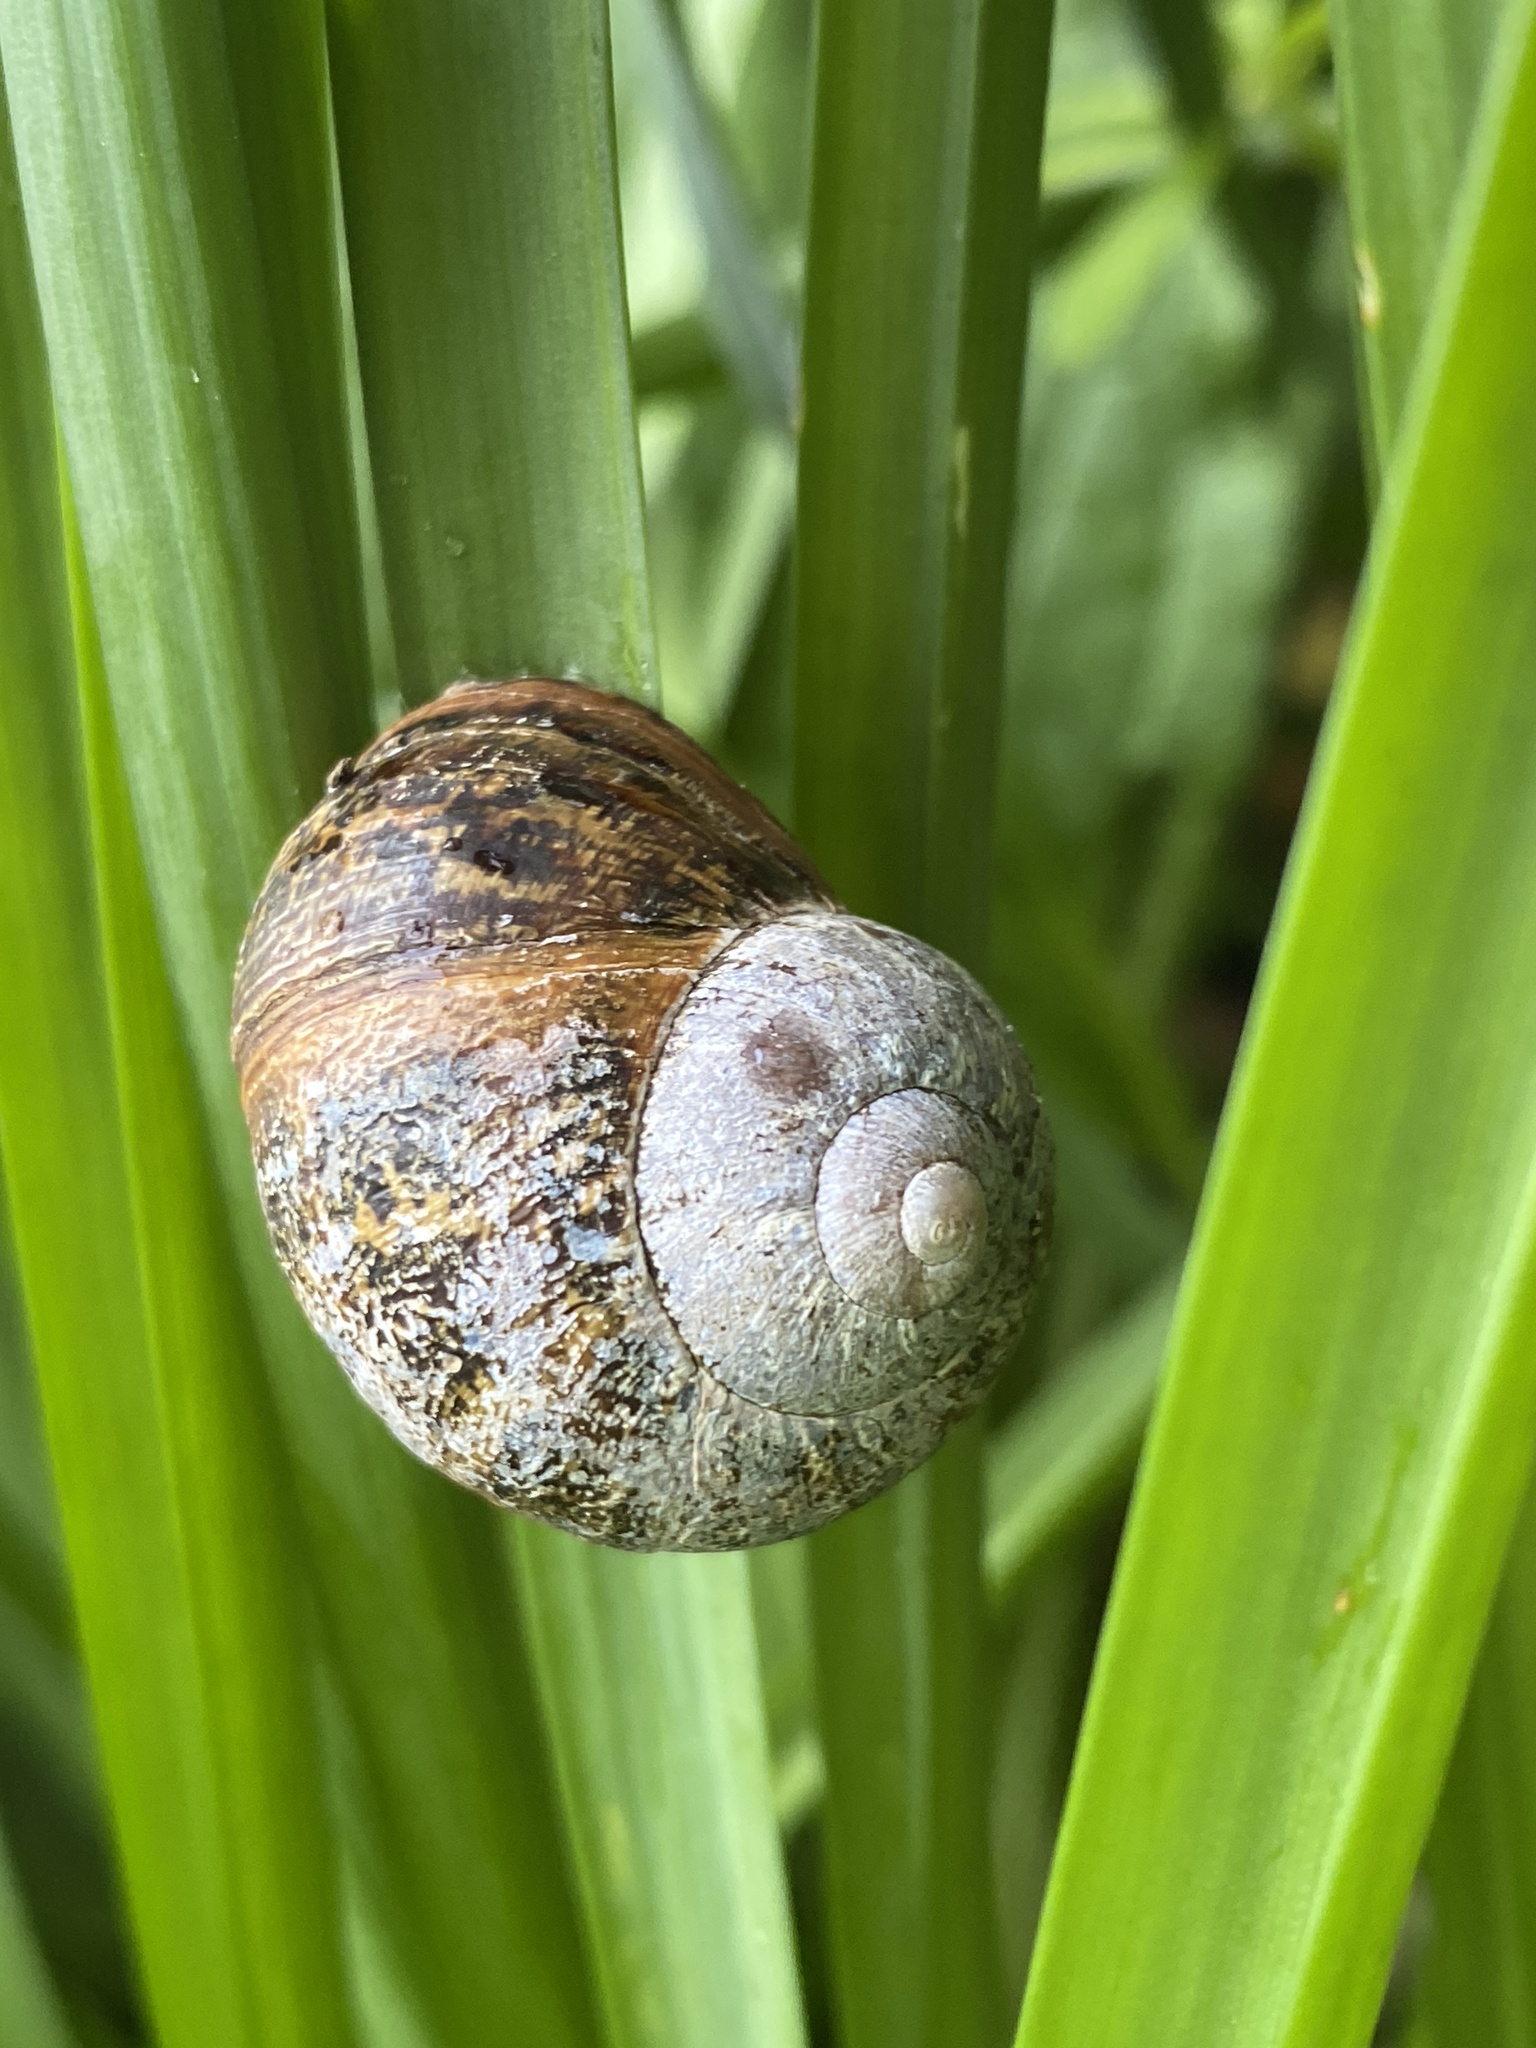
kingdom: Animalia
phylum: Mollusca
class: Gastropoda
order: Stylommatophora
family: Helicidae
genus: Cornu
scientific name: Cornu aspersum
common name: Brown garden snail
